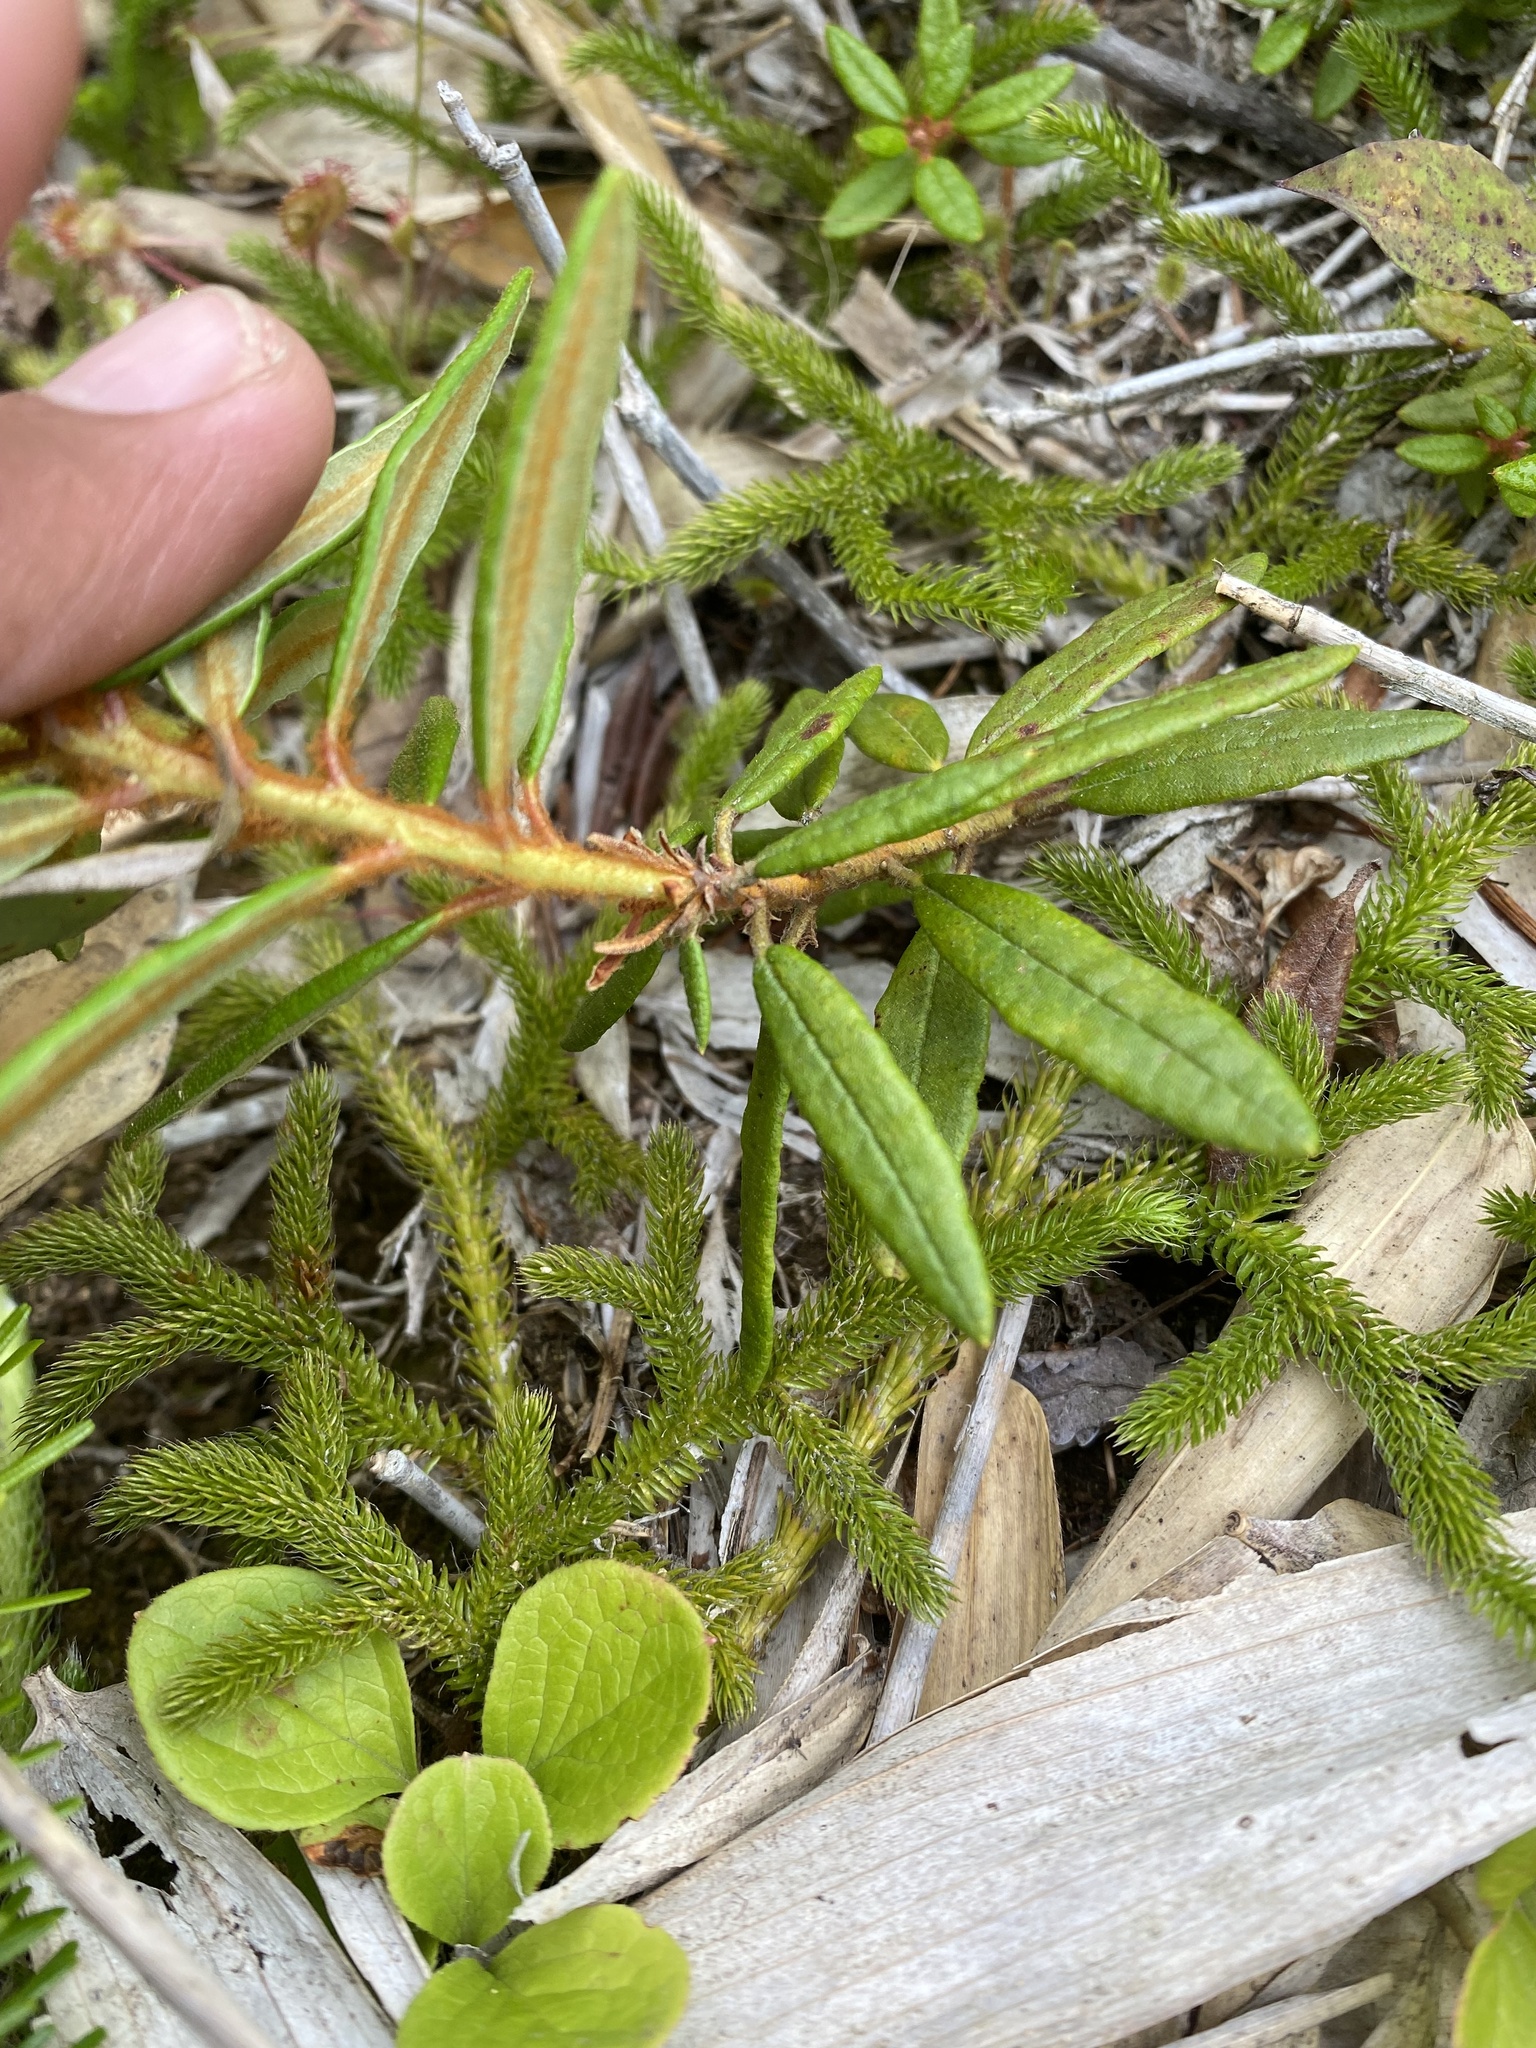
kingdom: Plantae
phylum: Tracheophyta
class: Magnoliopsida
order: Ericales
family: Ericaceae
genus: Rhododendron
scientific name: Rhododendron tomentosum
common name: Marsh labrador tea
